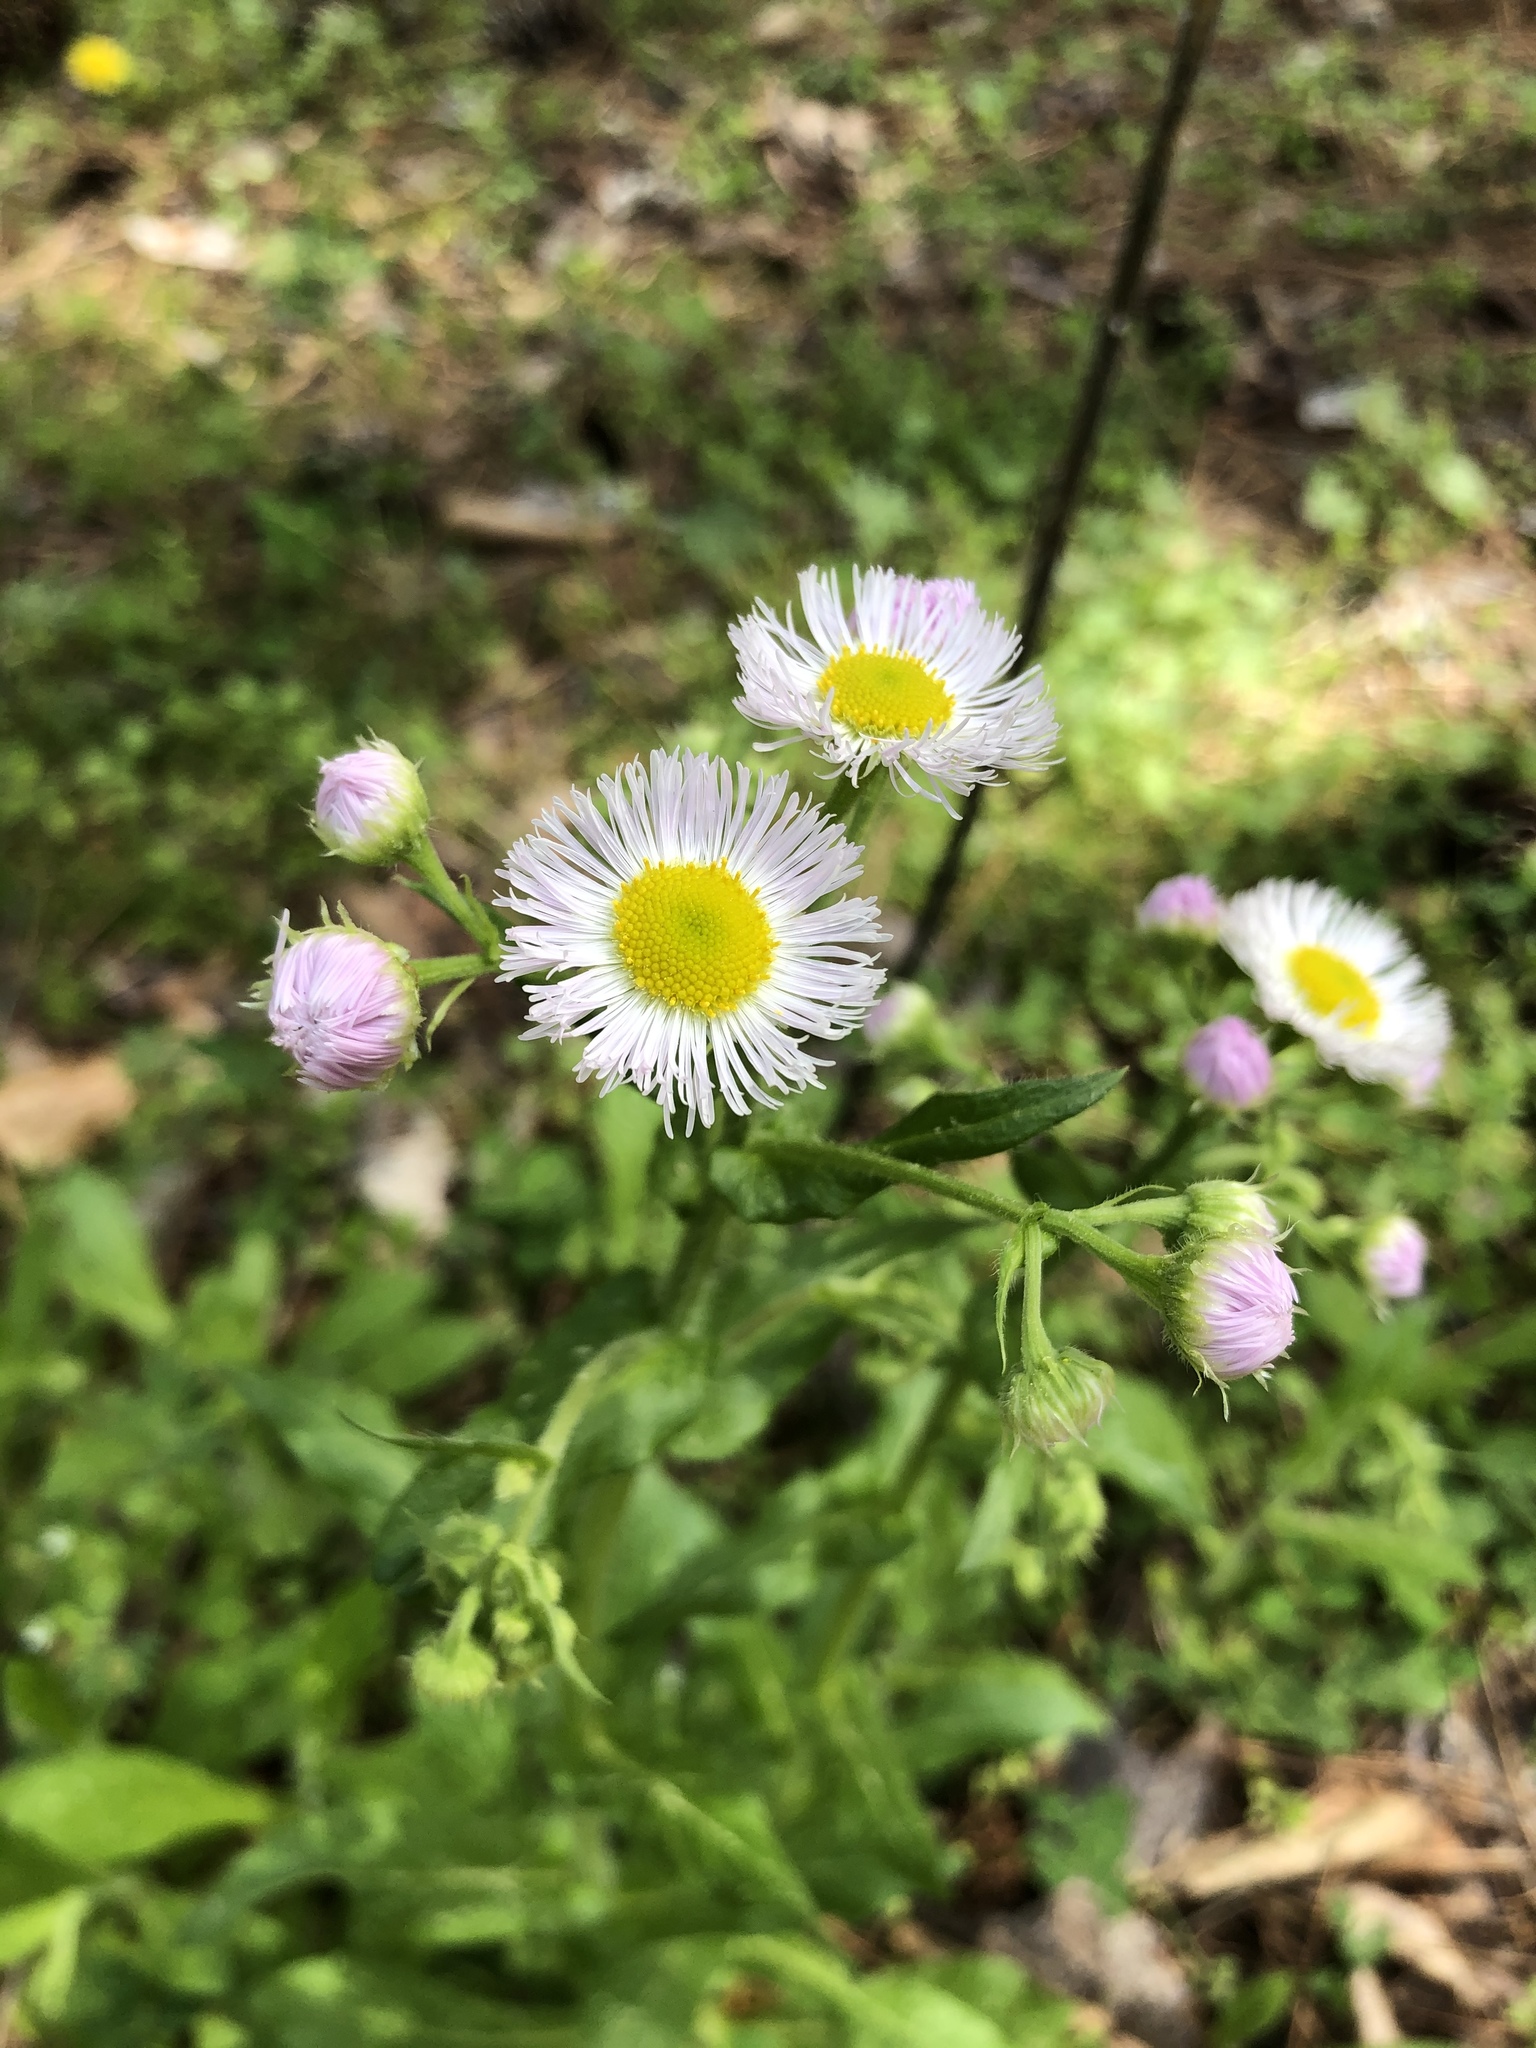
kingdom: Plantae
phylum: Tracheophyta
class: Magnoliopsida
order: Asterales
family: Asteraceae
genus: Erigeron
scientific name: Erigeron philadelphicus
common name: Robin's-plantain
